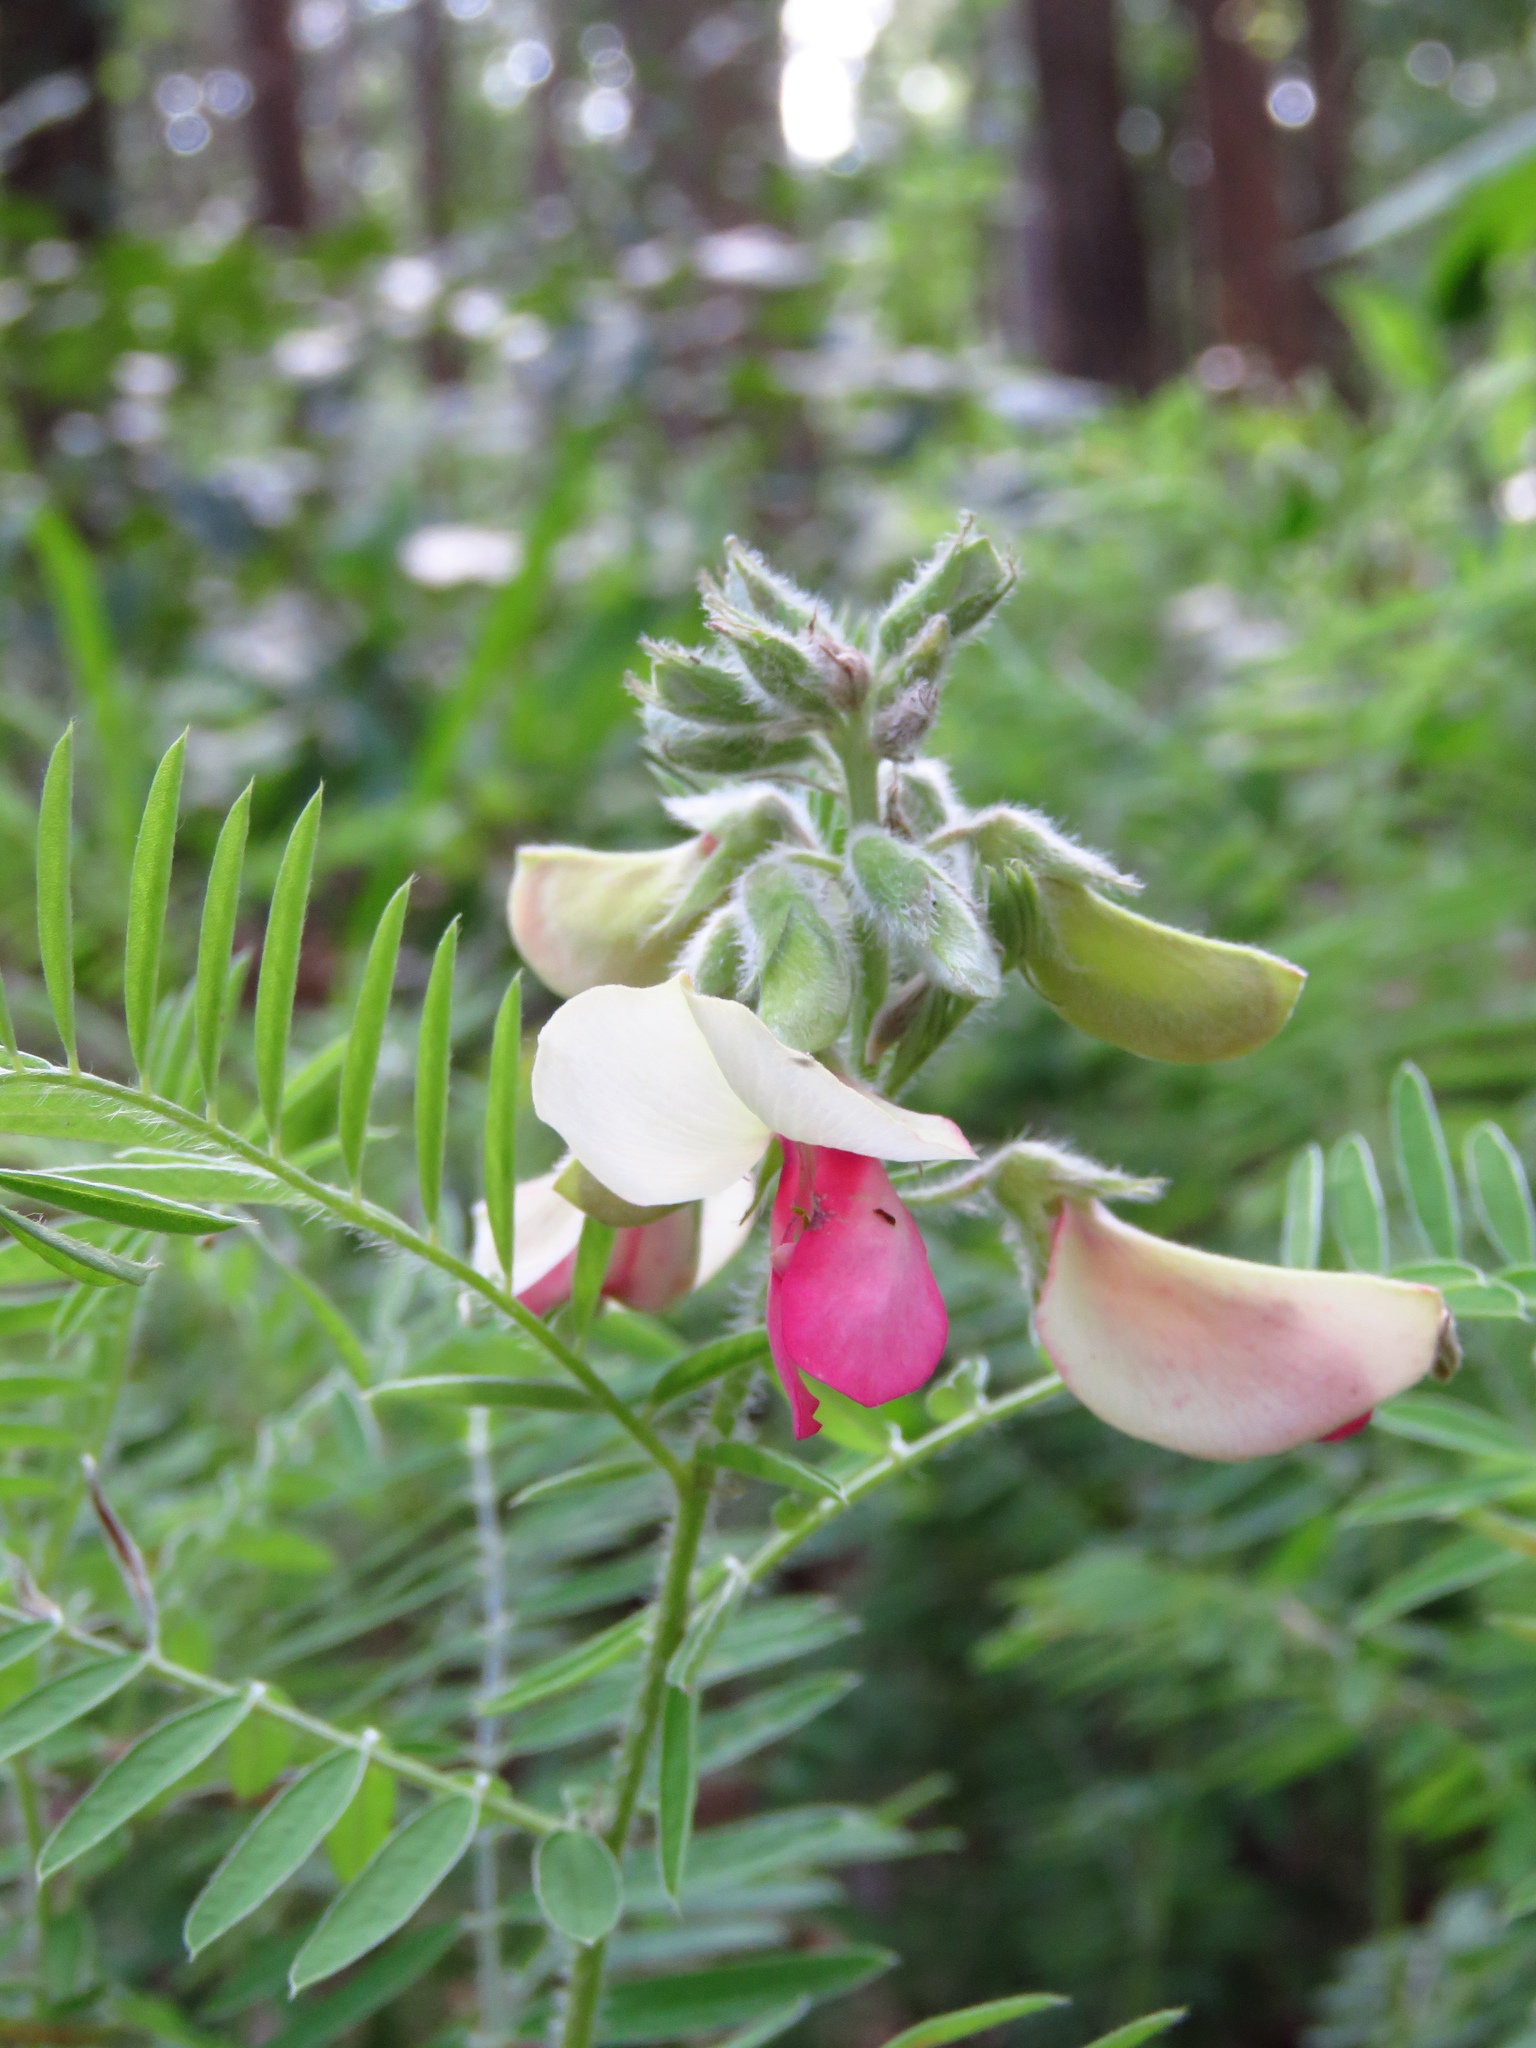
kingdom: Plantae
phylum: Tracheophyta
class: Magnoliopsida
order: Fabales
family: Fabaceae
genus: Tephrosia
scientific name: Tephrosia virginiana
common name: Rabbit-pea
